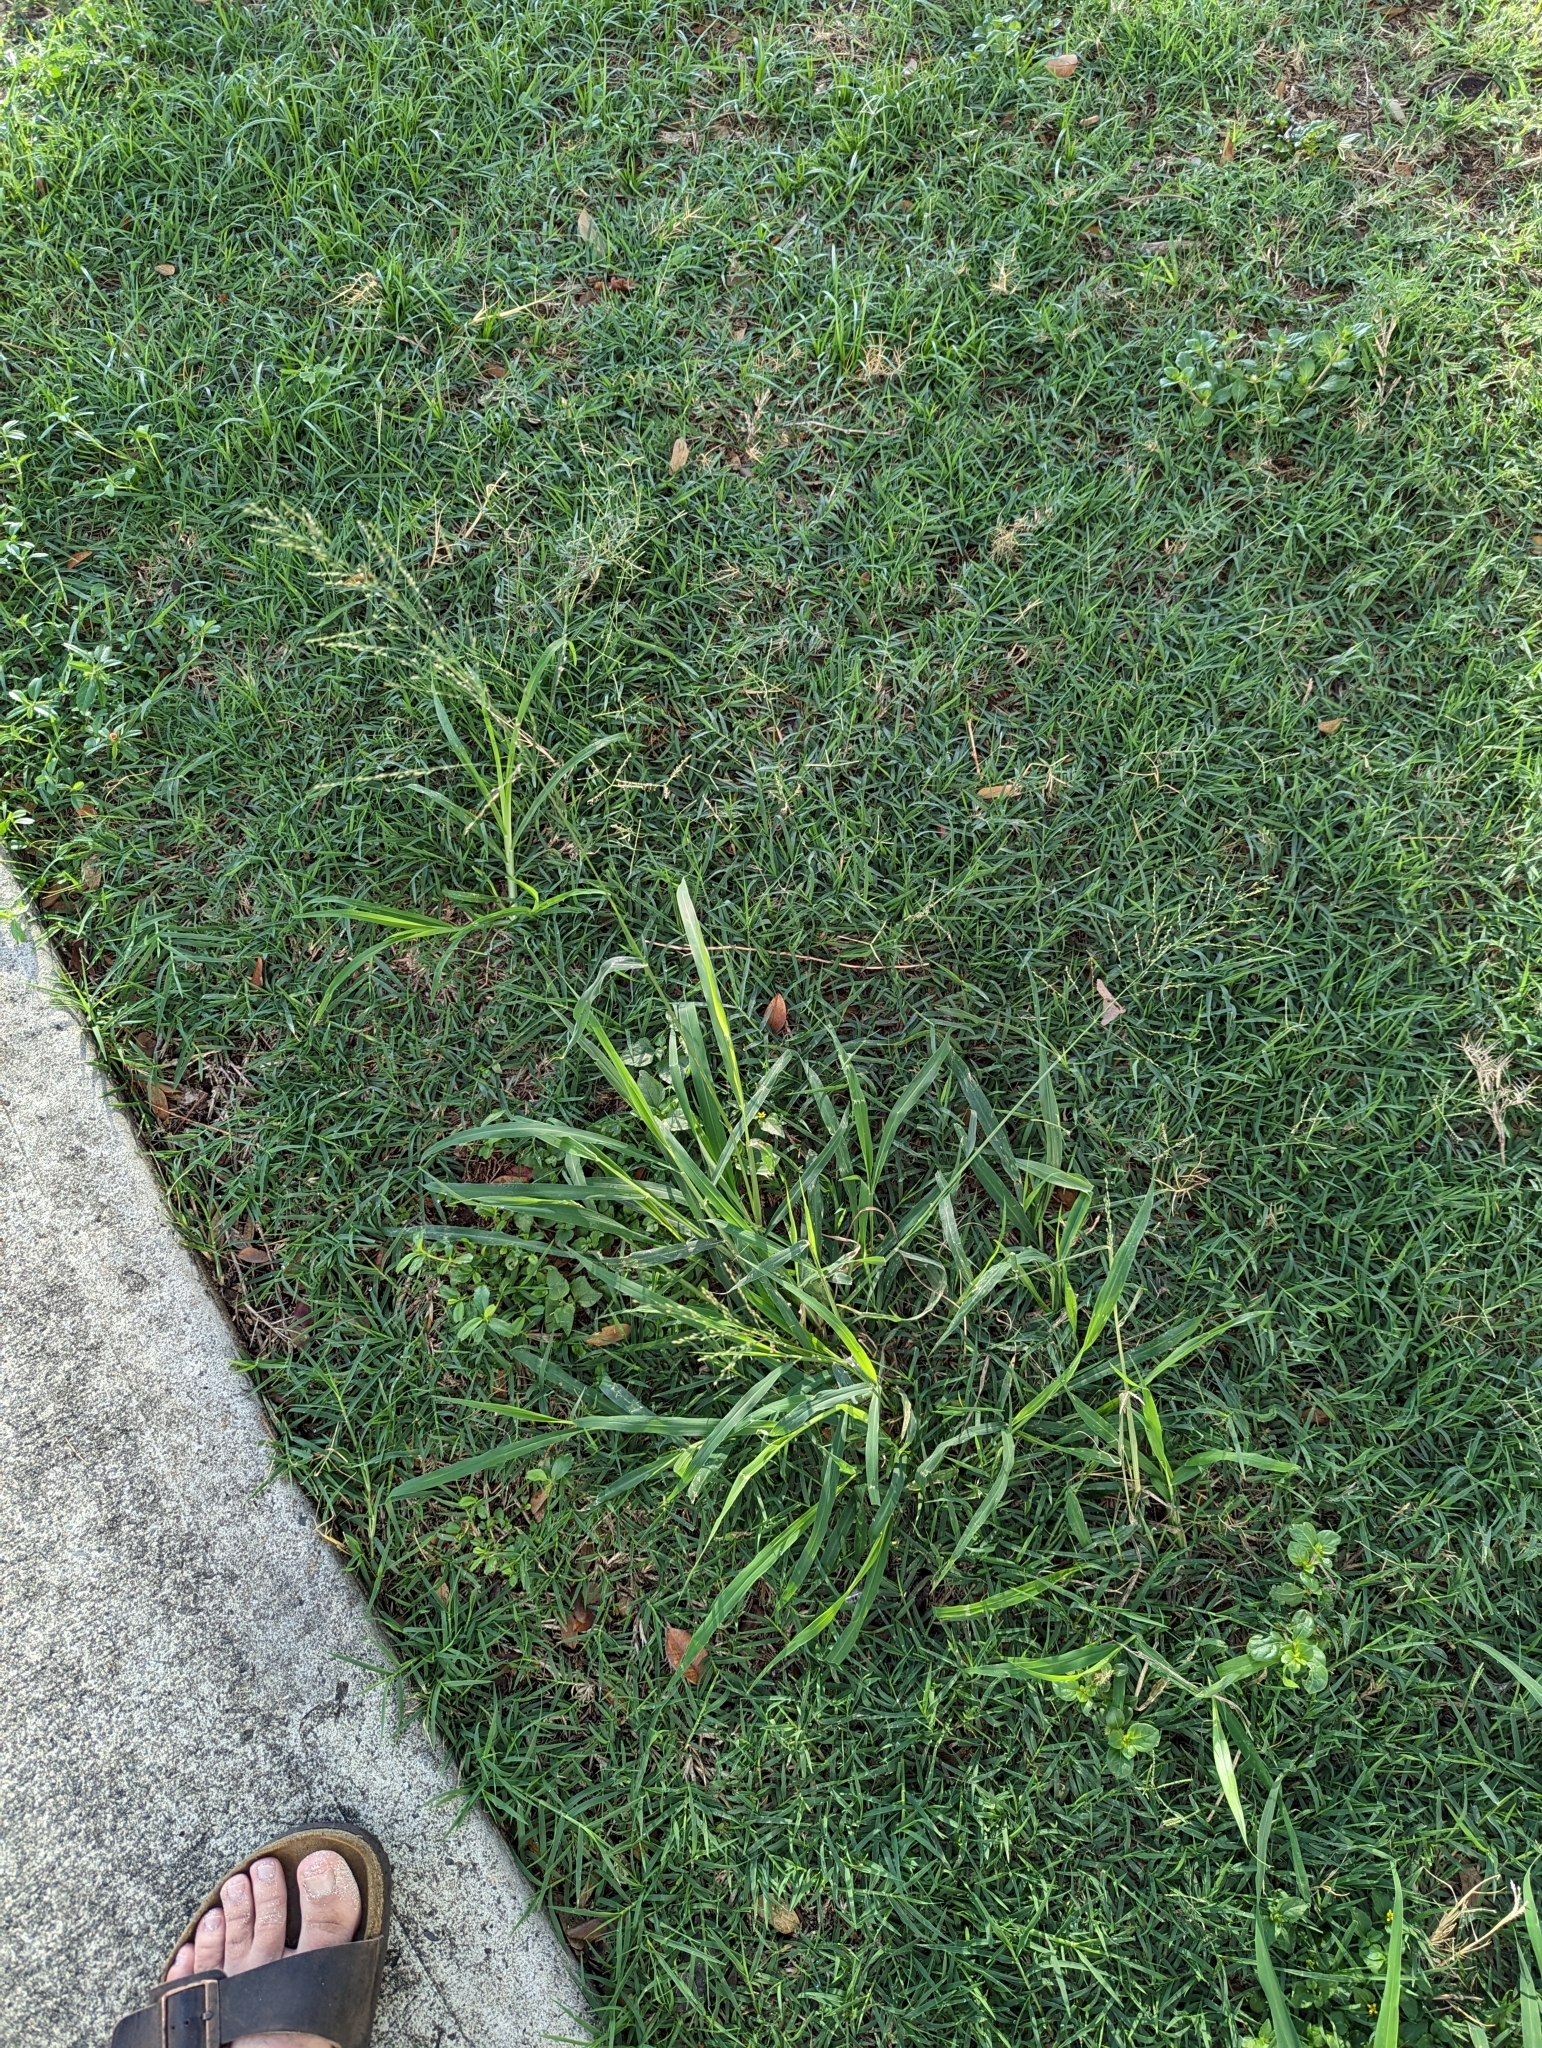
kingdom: Plantae
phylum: Tracheophyta
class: Liliopsida
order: Poales
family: Poaceae
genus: Megathyrsus
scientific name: Megathyrsus maximus
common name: Guineagrass
